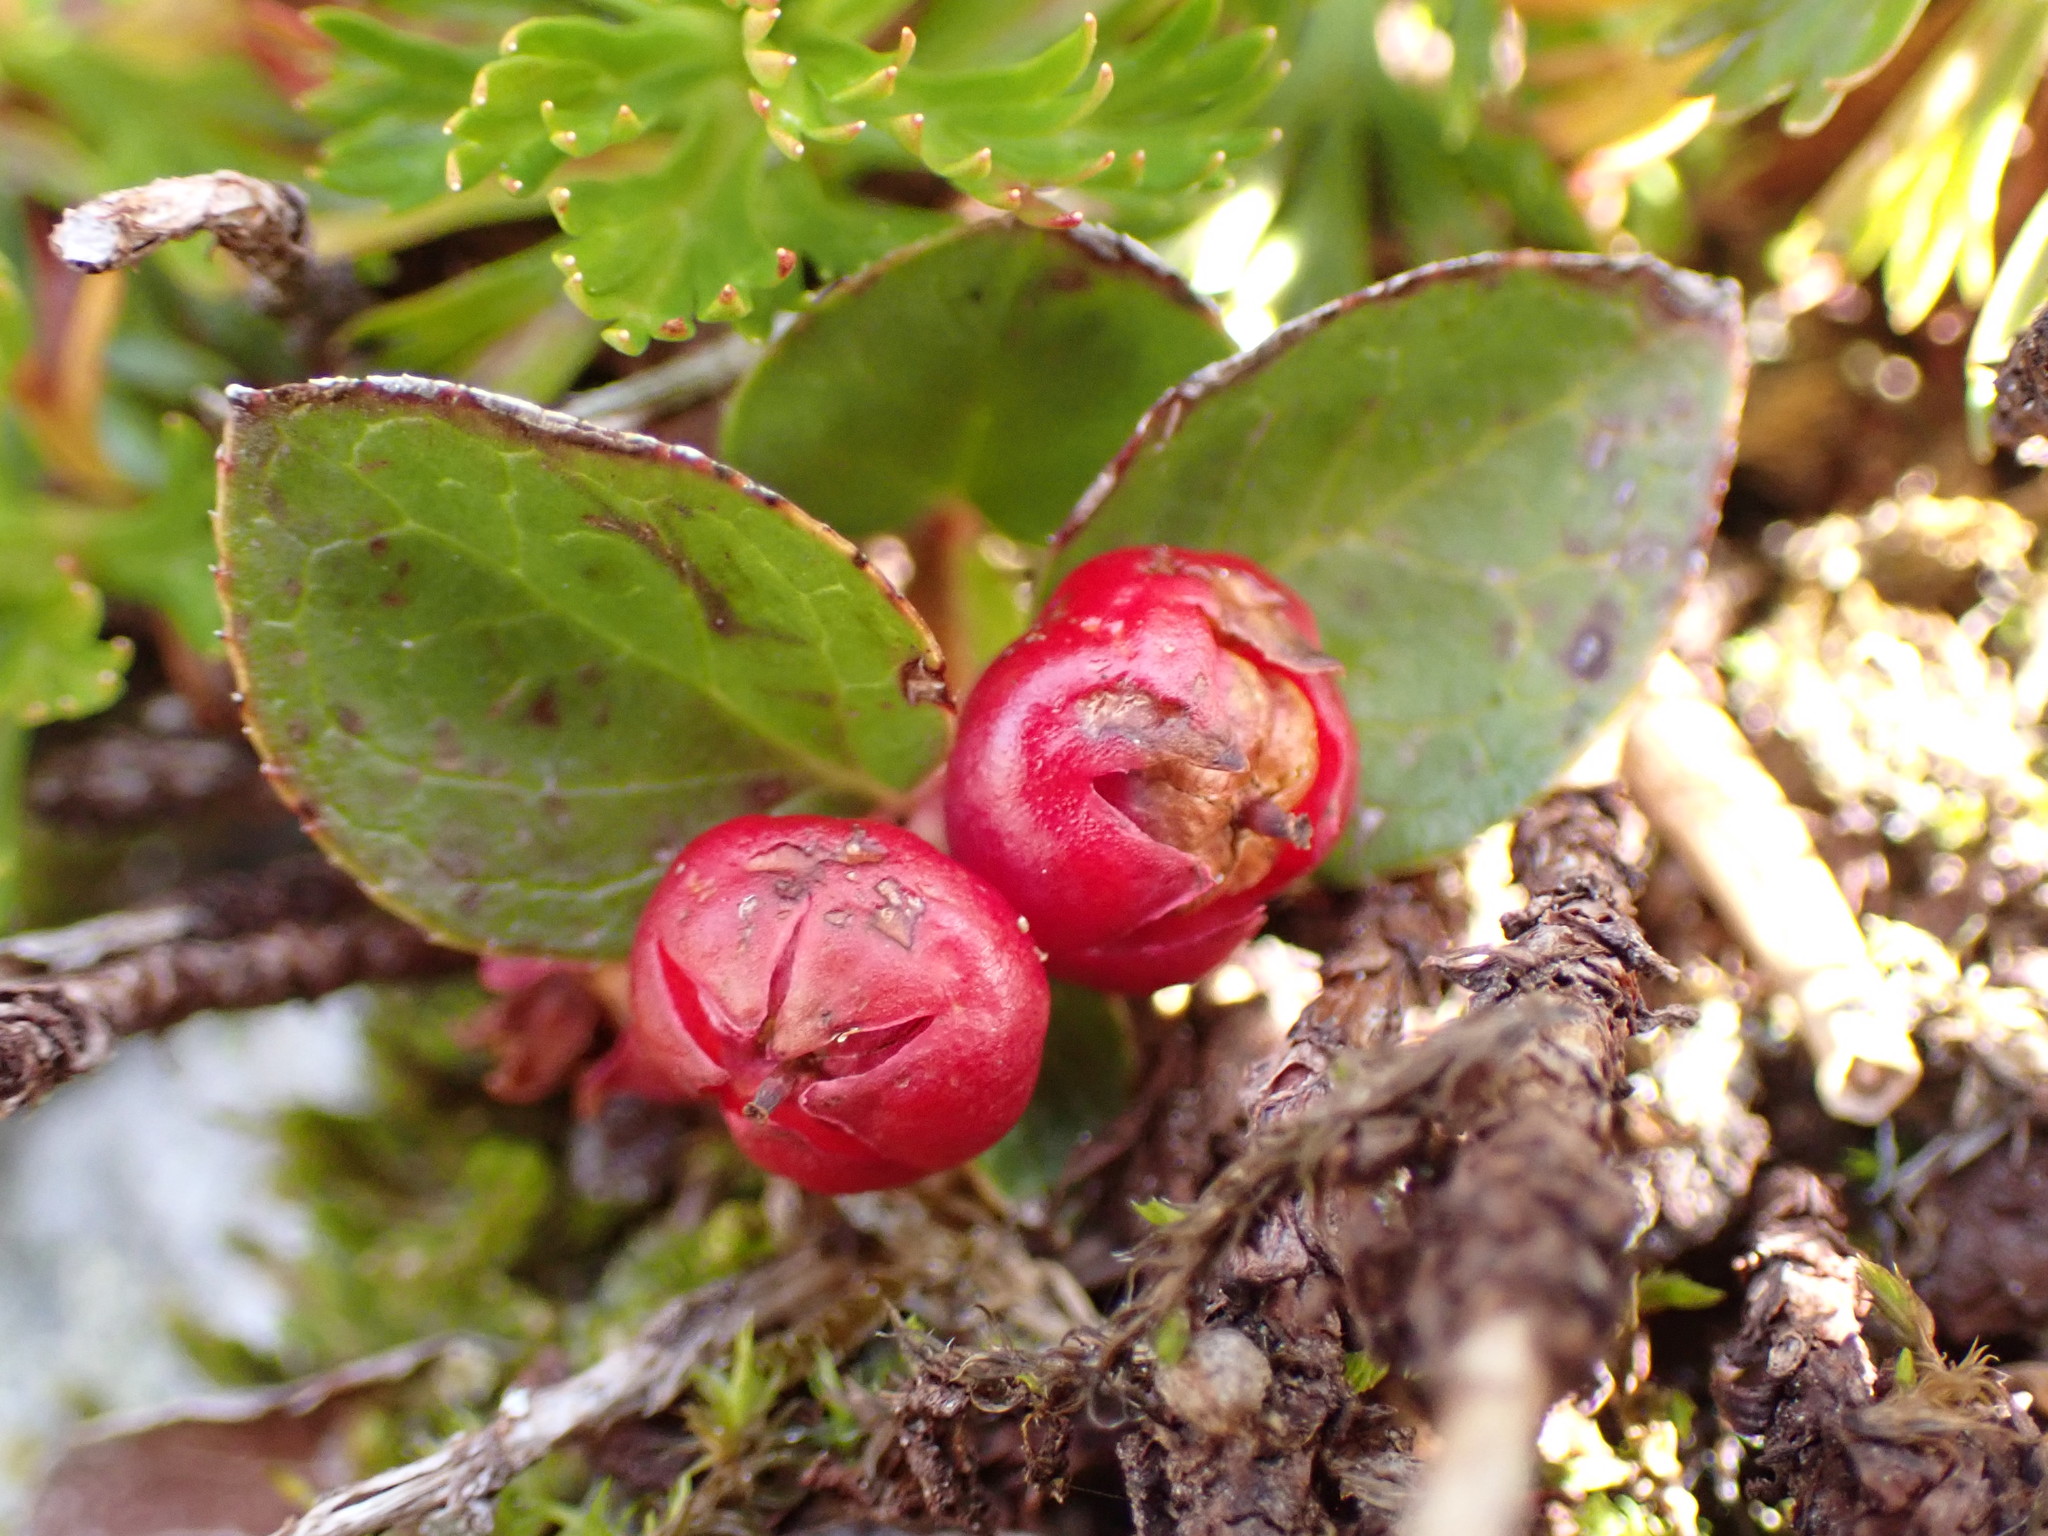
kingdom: Plantae
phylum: Tracheophyta
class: Magnoliopsida
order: Ericales
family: Ericaceae
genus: Gaultheria
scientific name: Gaultheria humifusa
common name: Alpine wintergreen
